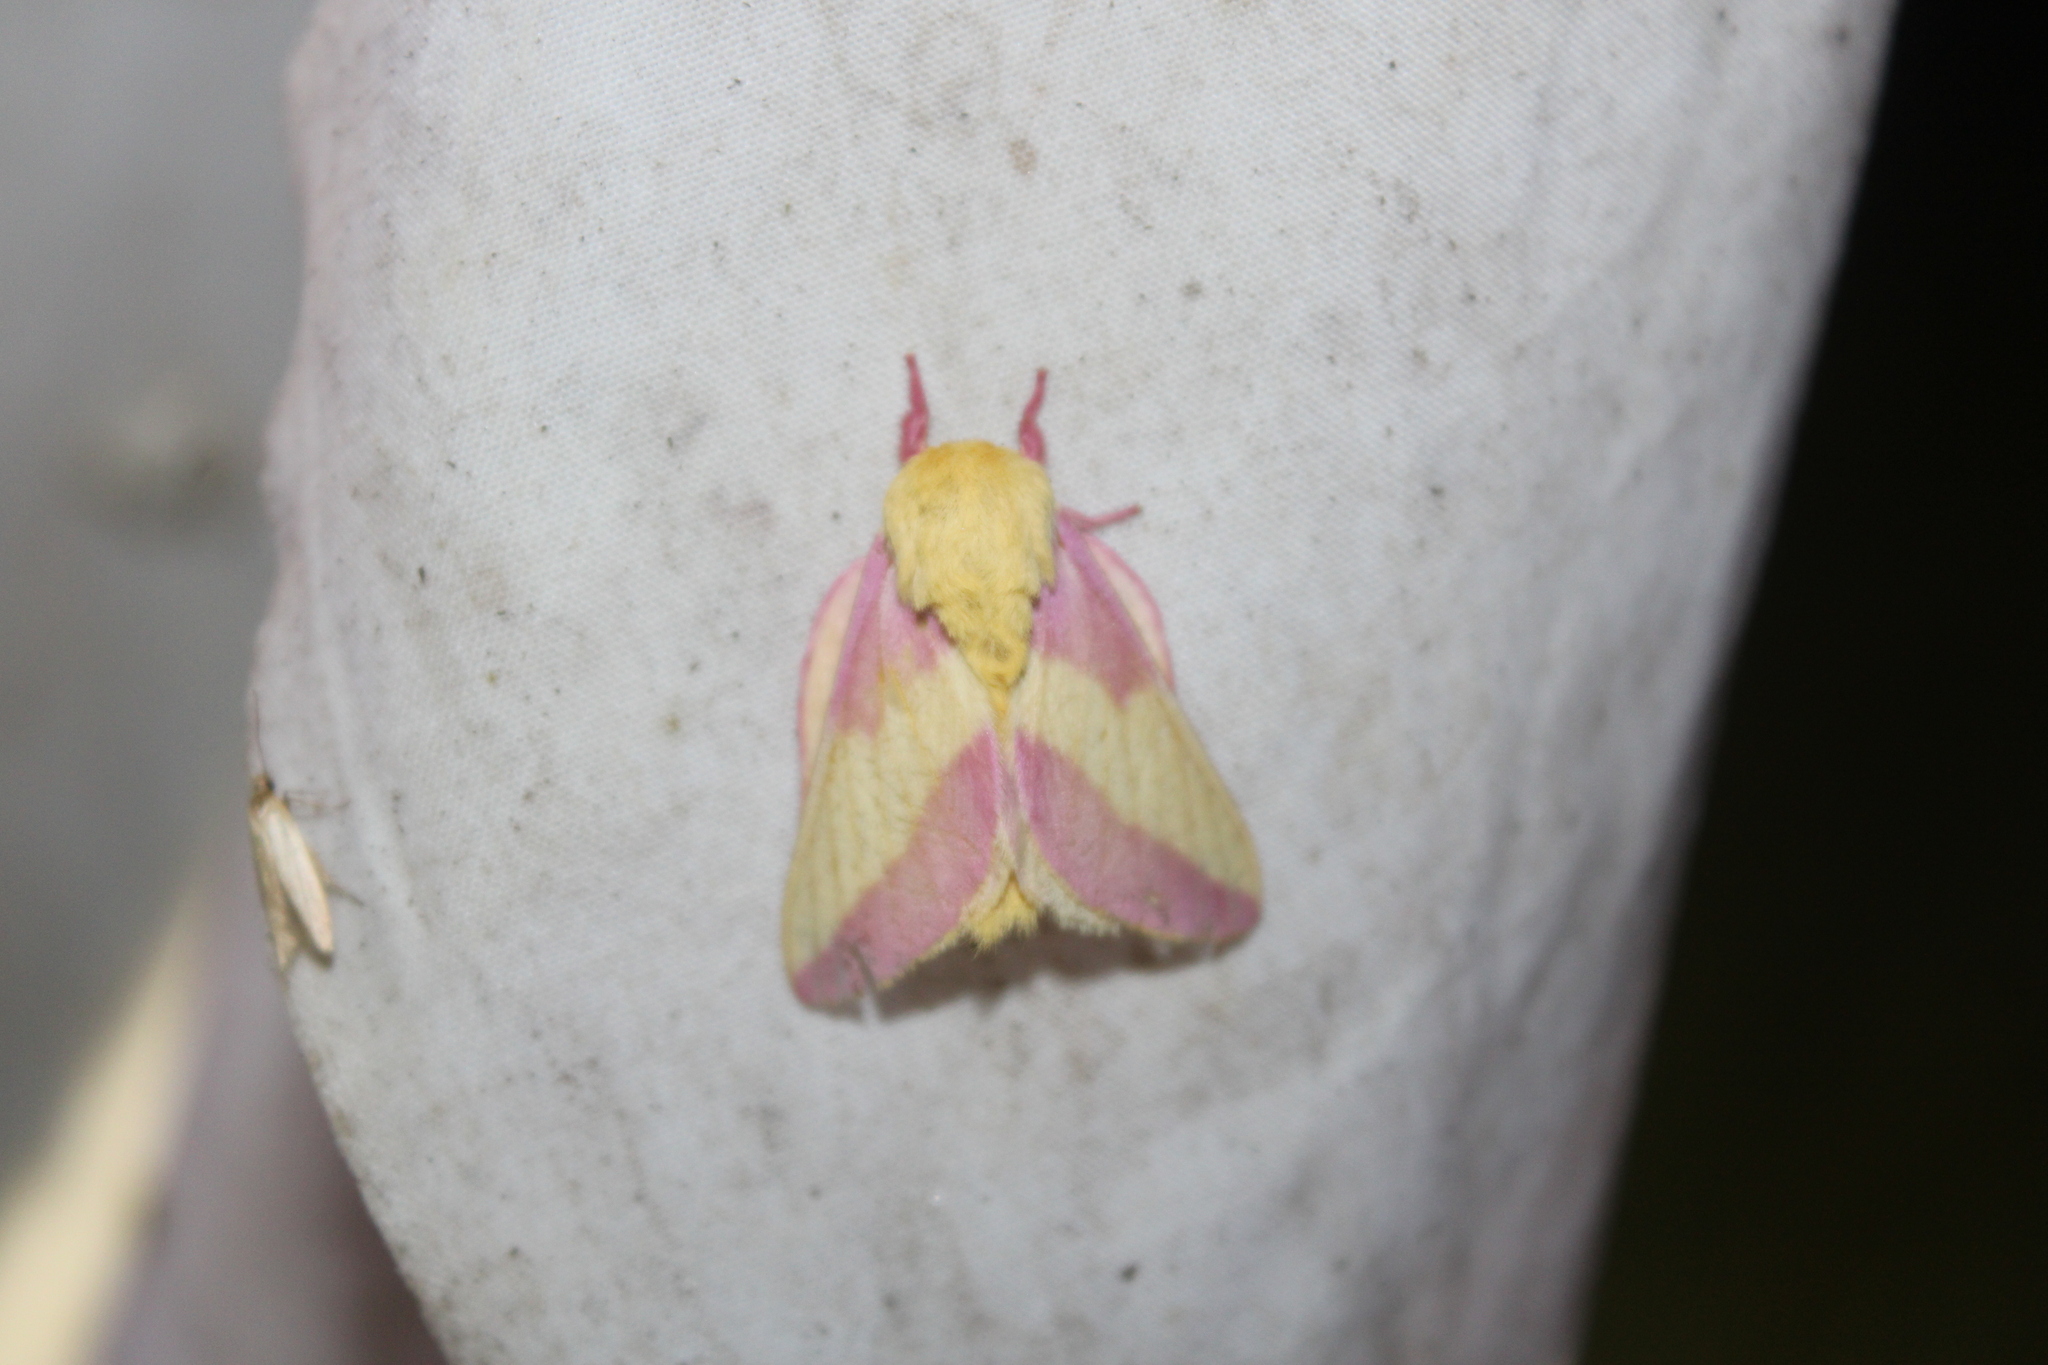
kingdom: Animalia
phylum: Arthropoda
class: Insecta
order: Lepidoptera
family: Saturniidae
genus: Dryocampa
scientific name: Dryocampa rubicunda
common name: Rosy maple moth
